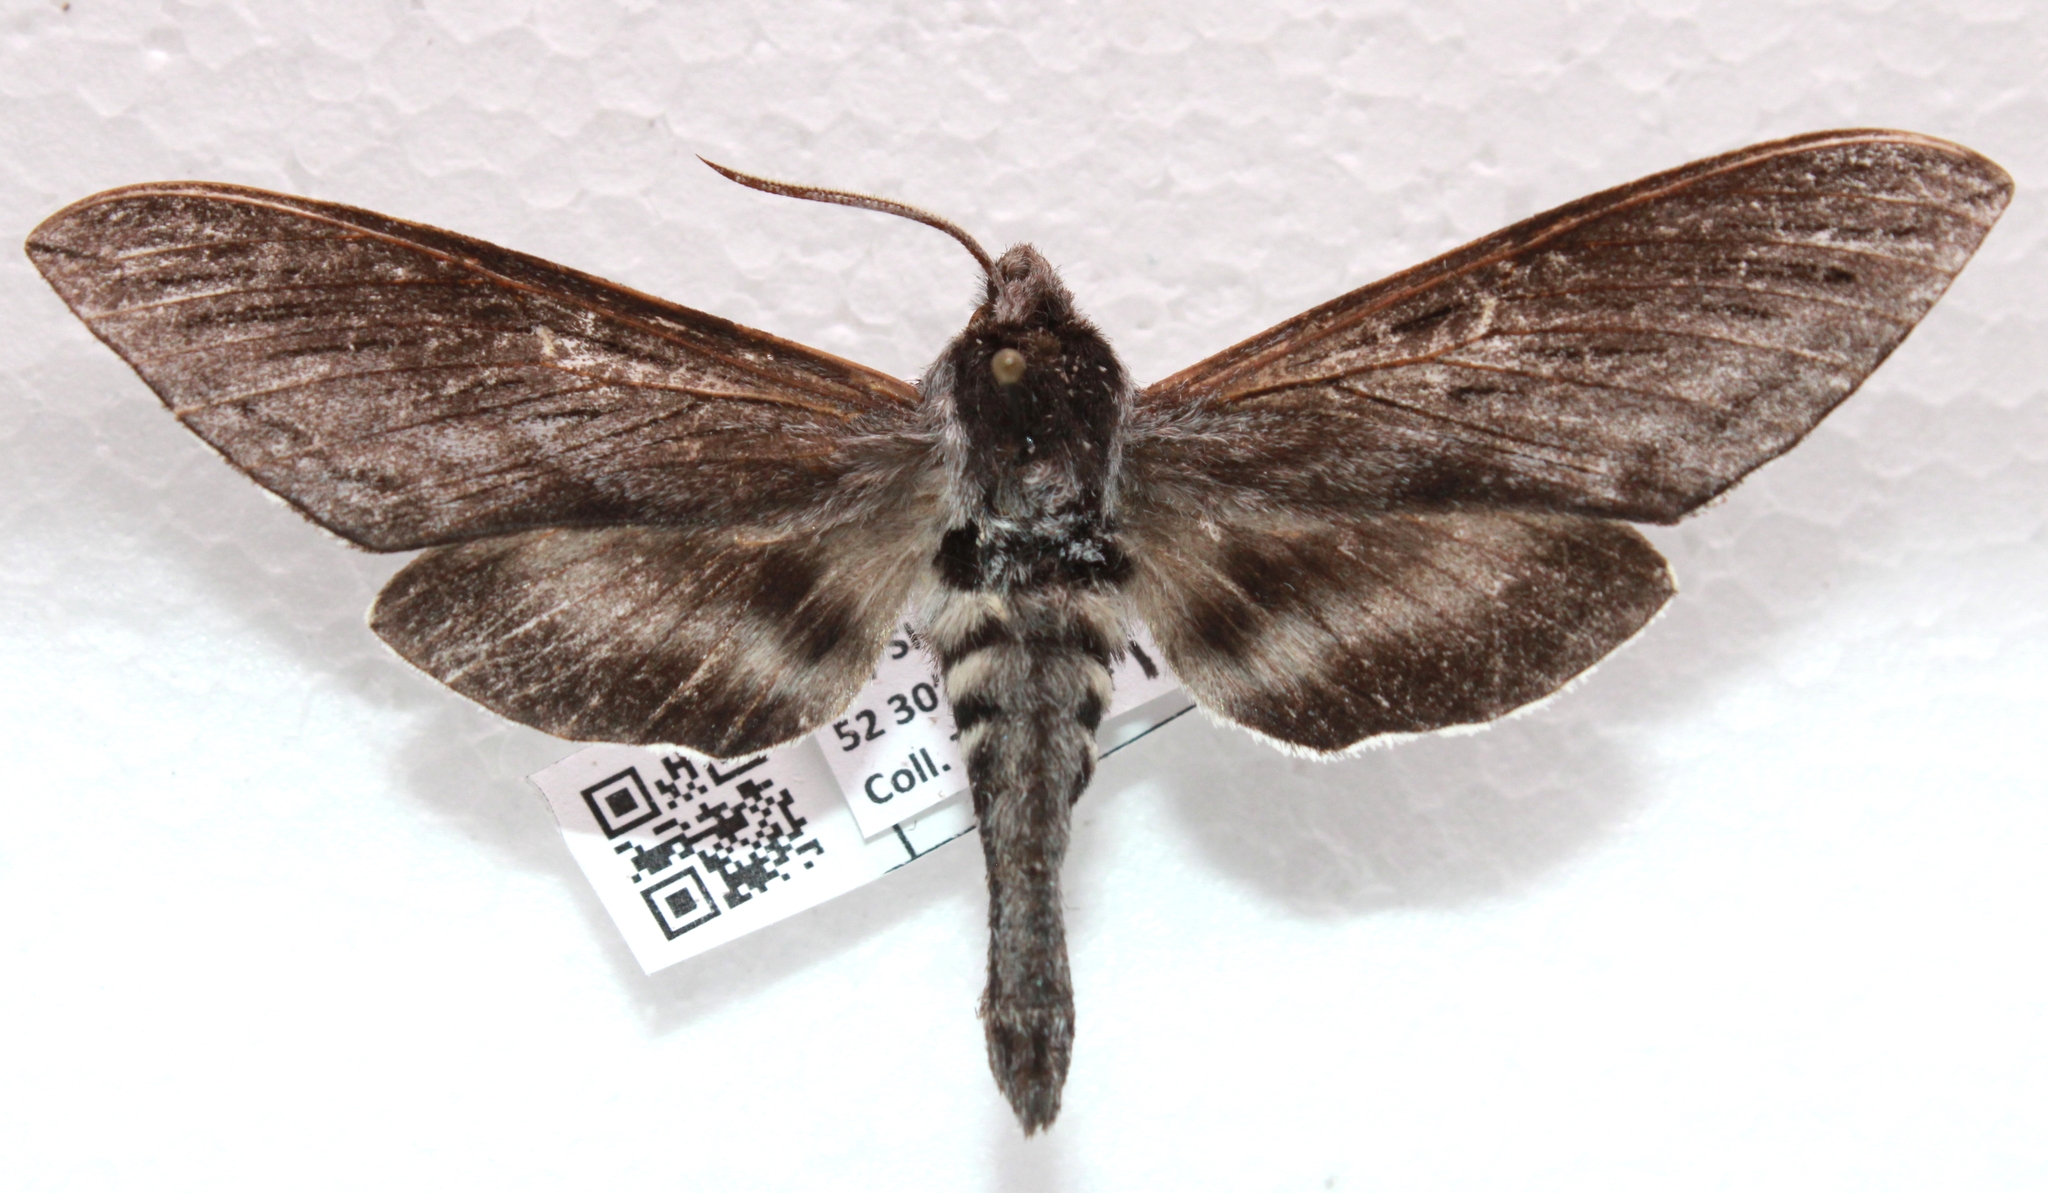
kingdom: Animalia
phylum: Arthropoda
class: Insecta
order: Lepidoptera
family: Sphingidae
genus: Sphinx
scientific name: Sphinx poecila
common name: Northern apple sphinx
